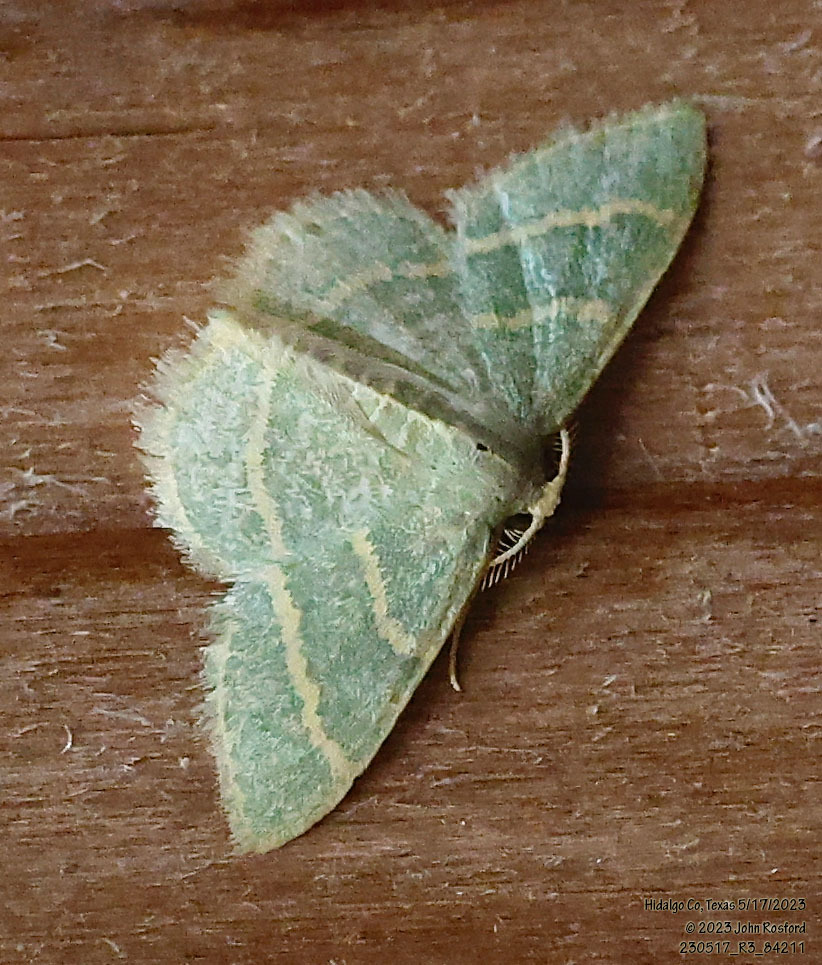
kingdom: Animalia
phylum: Arthropoda
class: Insecta
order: Lepidoptera
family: Geometridae
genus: Chlorochlamys
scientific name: Chlorochlamys chloroleucaria
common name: Blackberry looper
